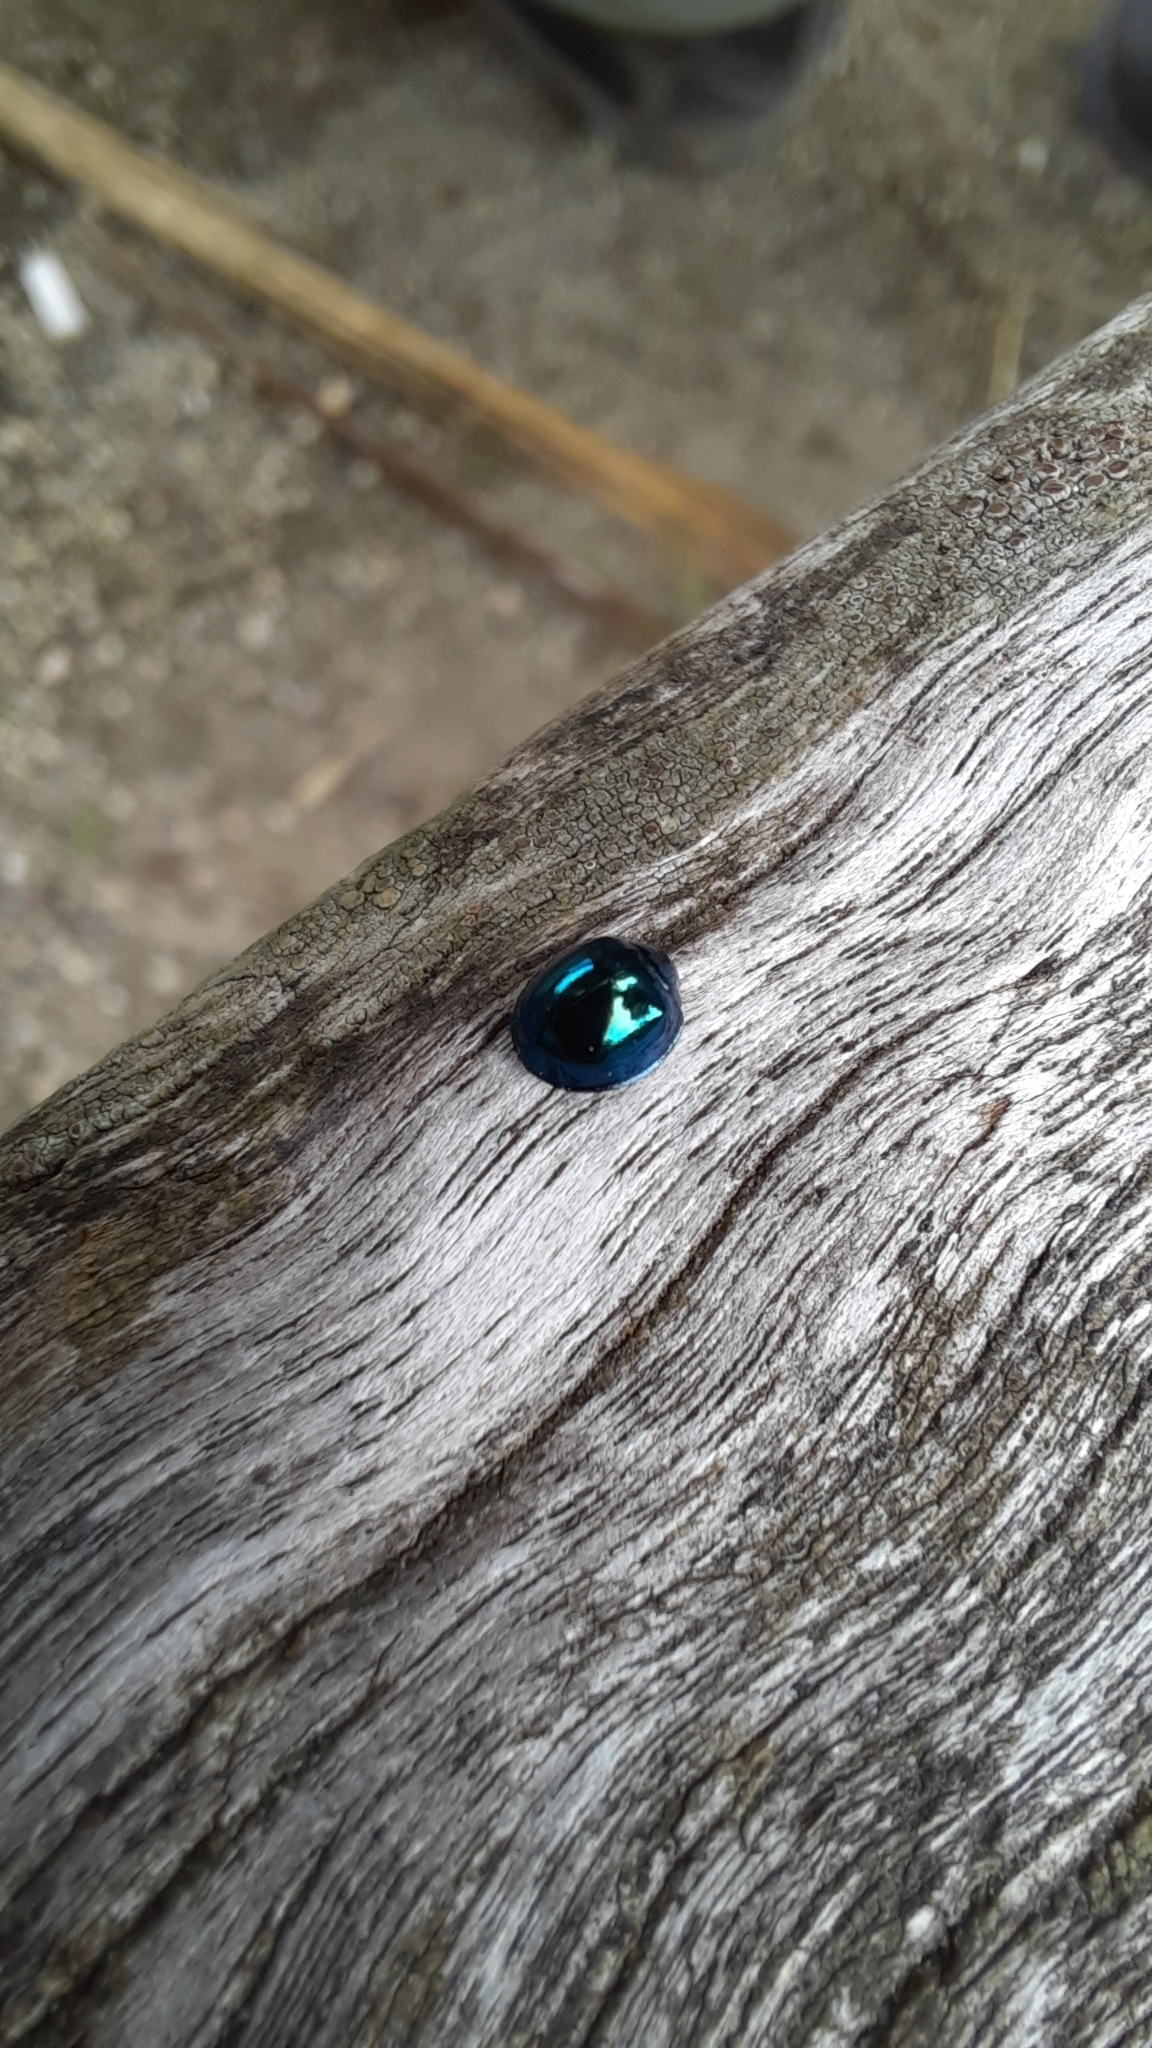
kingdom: Animalia
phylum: Arthropoda
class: Insecta
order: Coleoptera
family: Coccinellidae
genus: Halmus
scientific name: Halmus chalybeus
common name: Steel blue ladybird beetle
